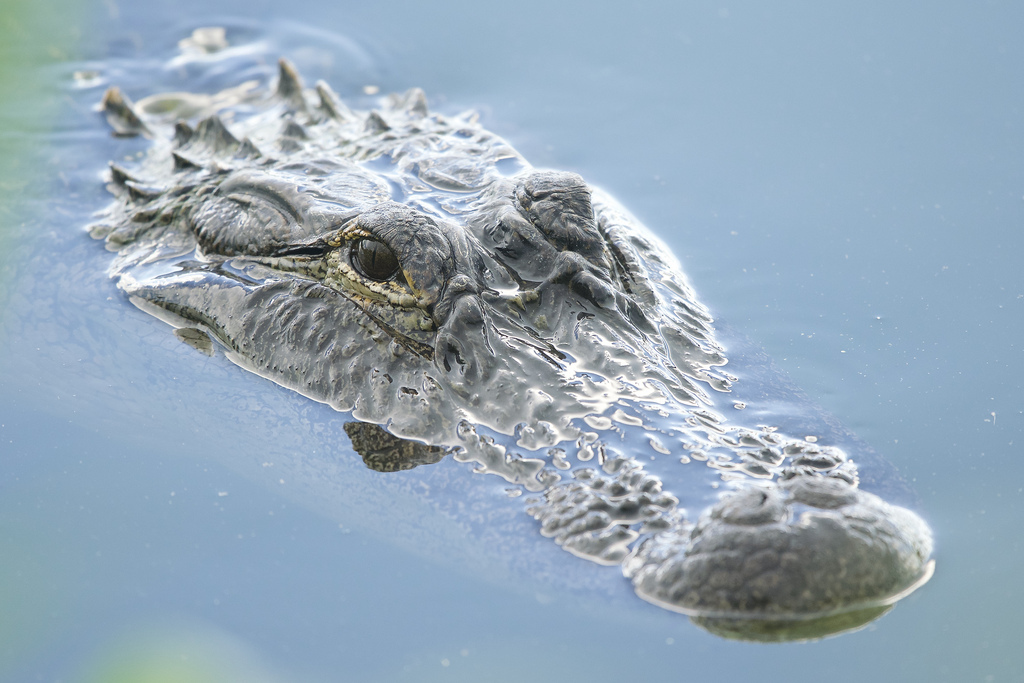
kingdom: Animalia
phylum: Chordata
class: Crocodylia
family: Alligatoridae
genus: Alligator
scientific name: Alligator mississippiensis
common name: American alligator
